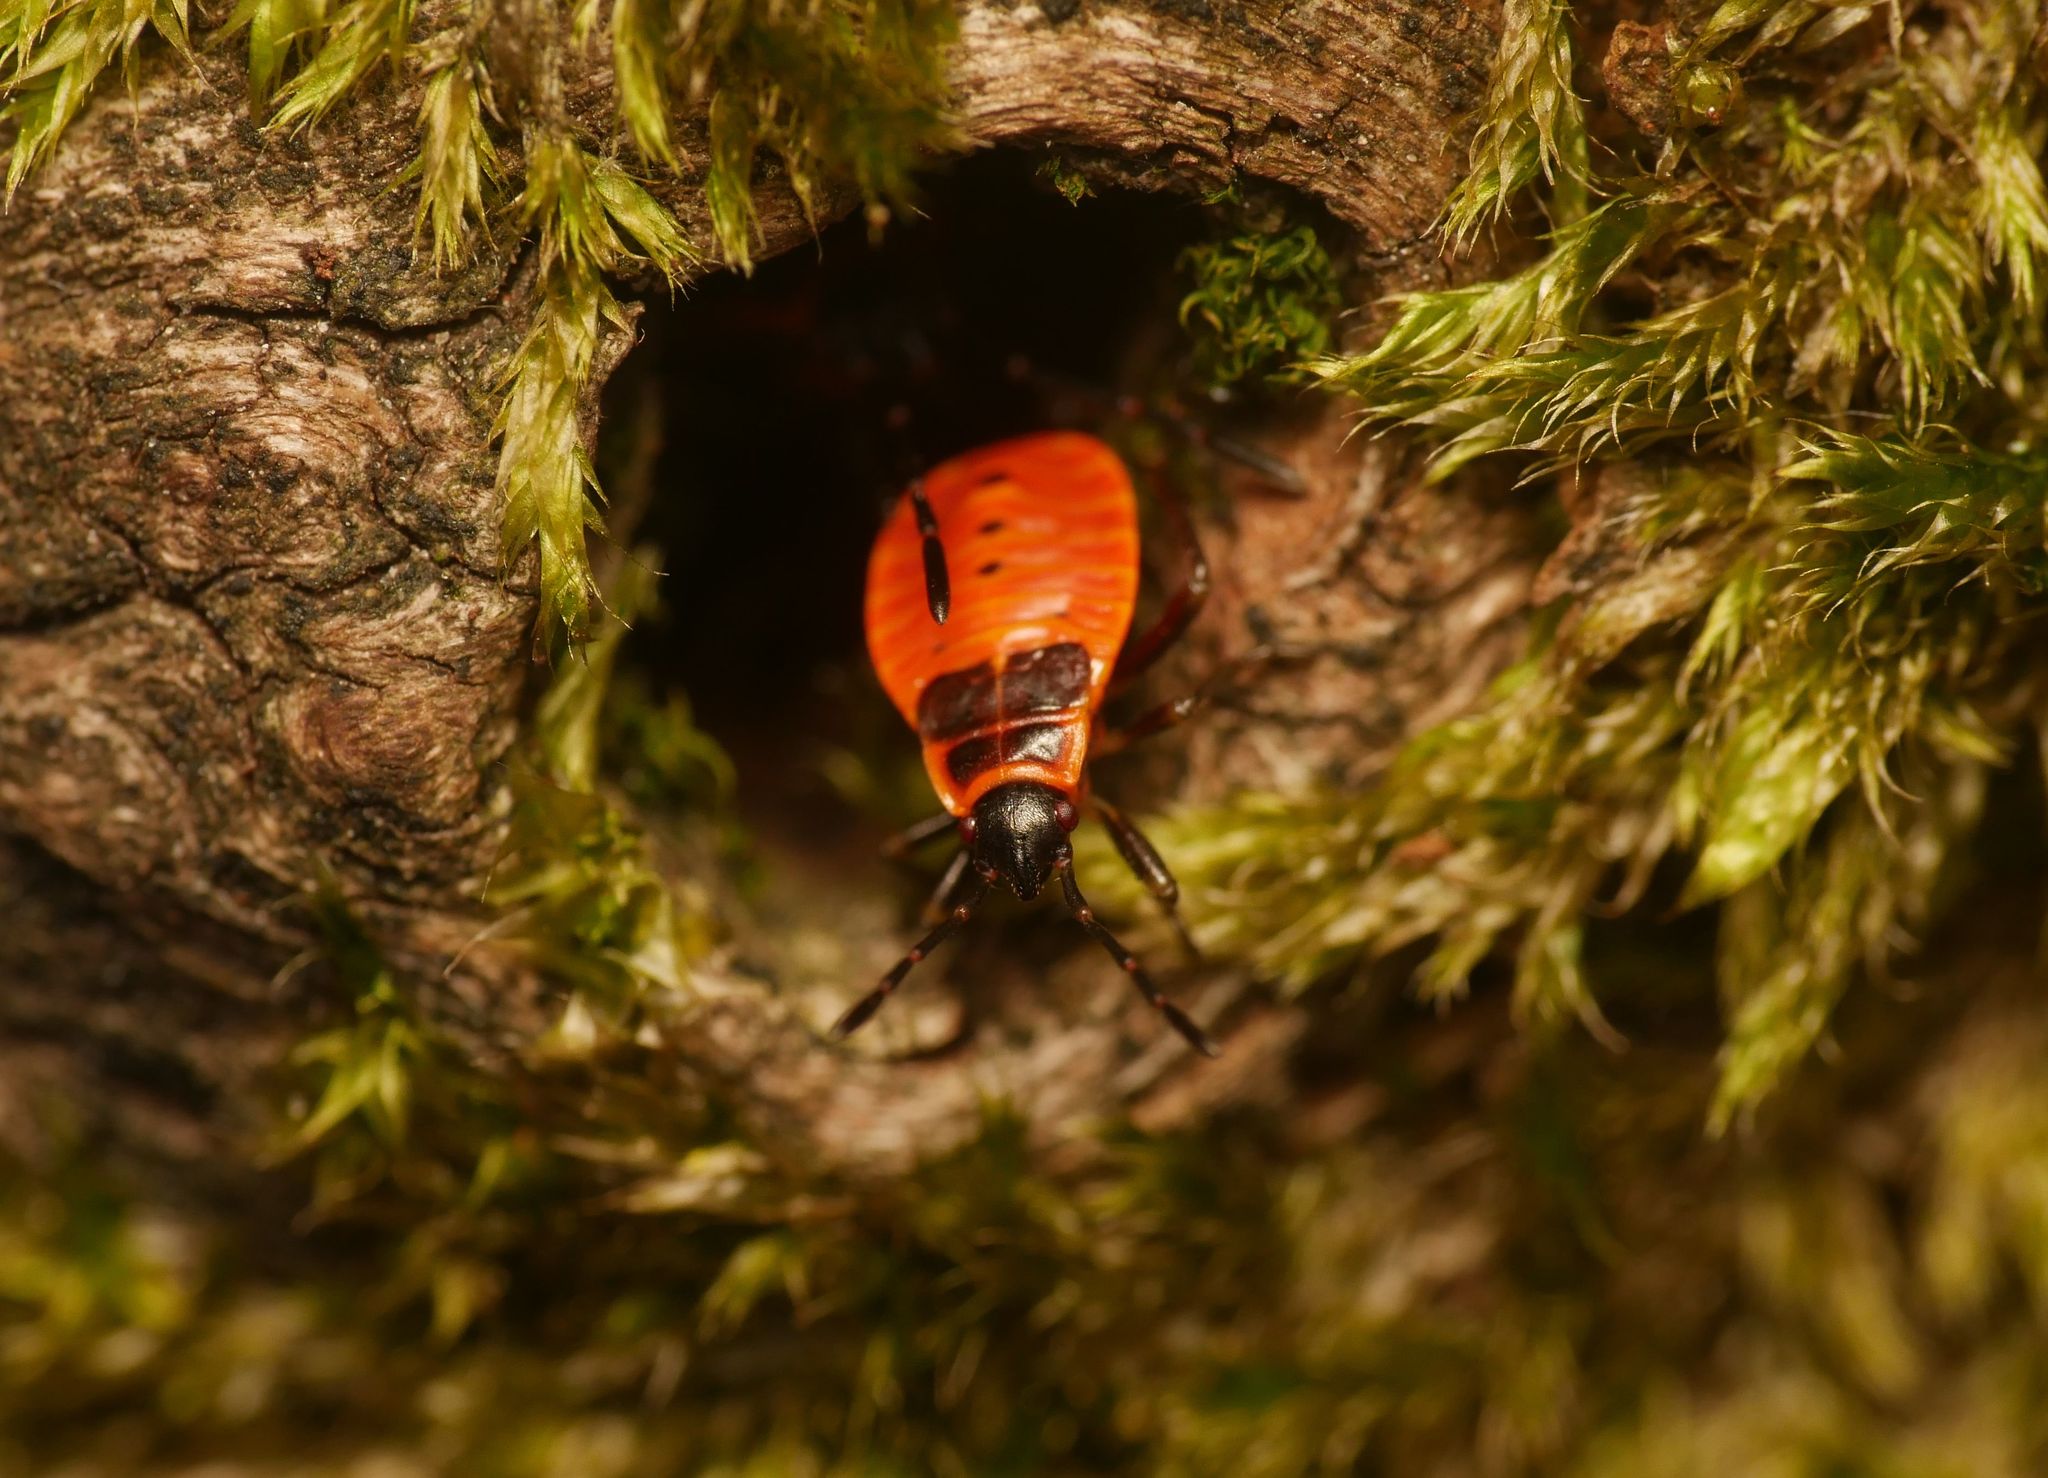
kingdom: Animalia
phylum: Arthropoda
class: Insecta
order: Hemiptera
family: Pyrrhocoridae
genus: Pyrrhocoris
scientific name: Pyrrhocoris apterus
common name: Firebug
